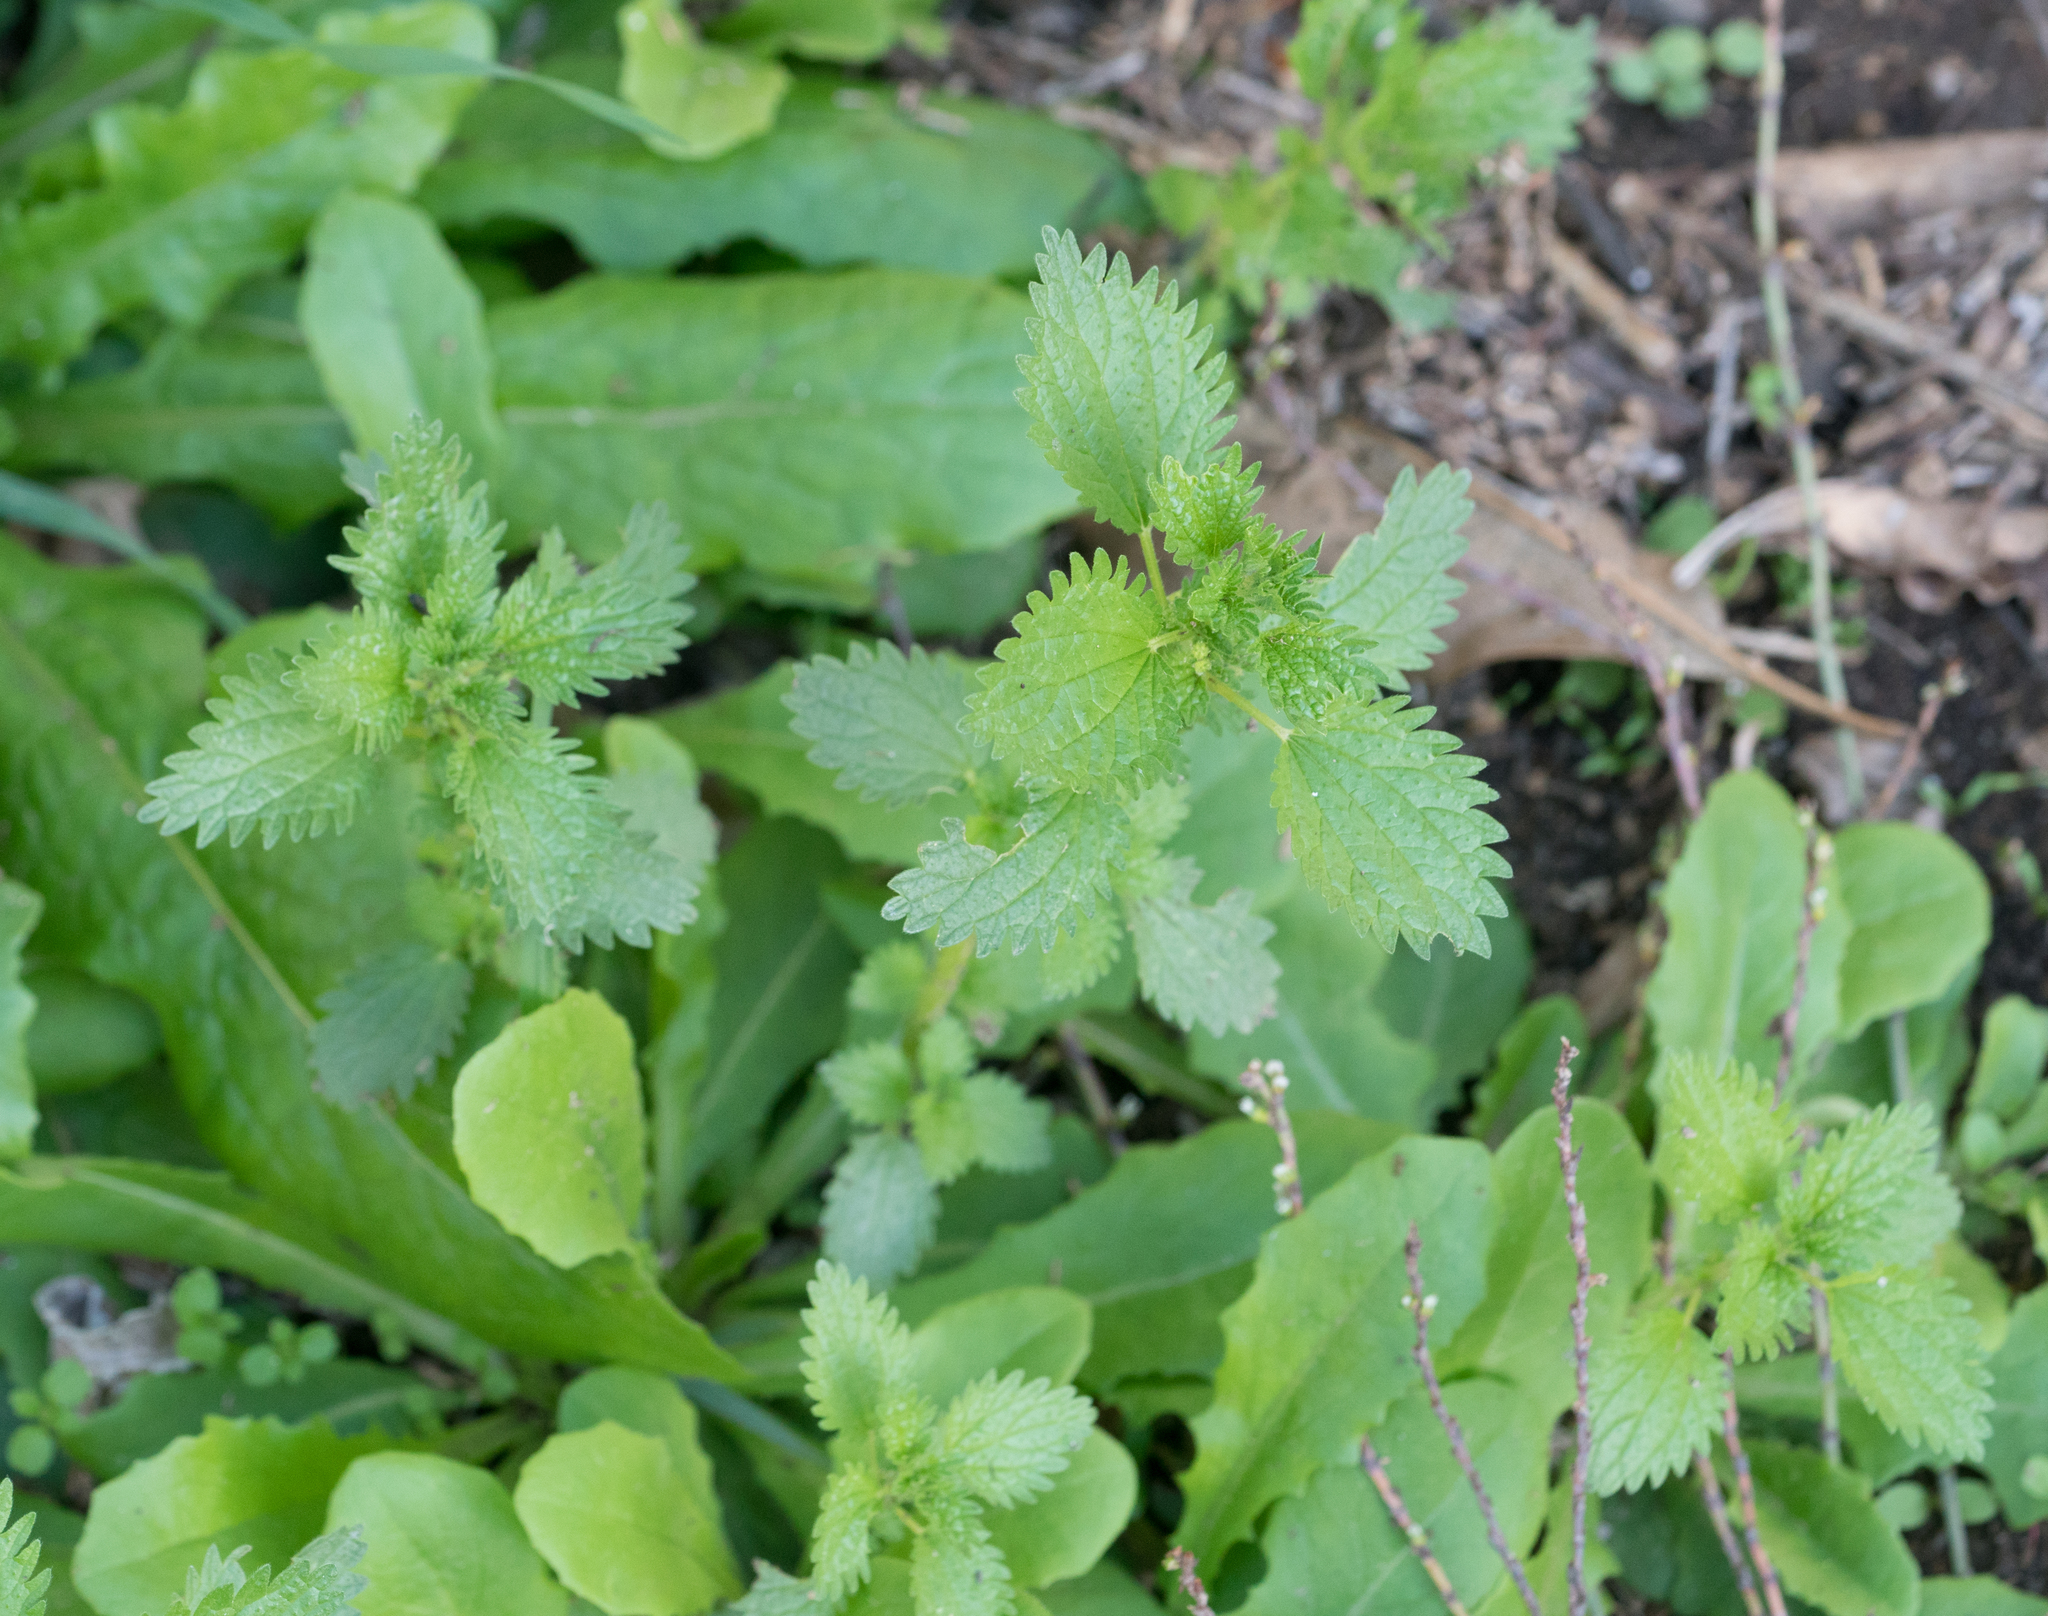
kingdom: Plantae
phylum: Tracheophyta
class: Magnoliopsida
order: Rosales
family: Urticaceae
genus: Urtica
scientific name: Urtica urens
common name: Dwarf nettle
